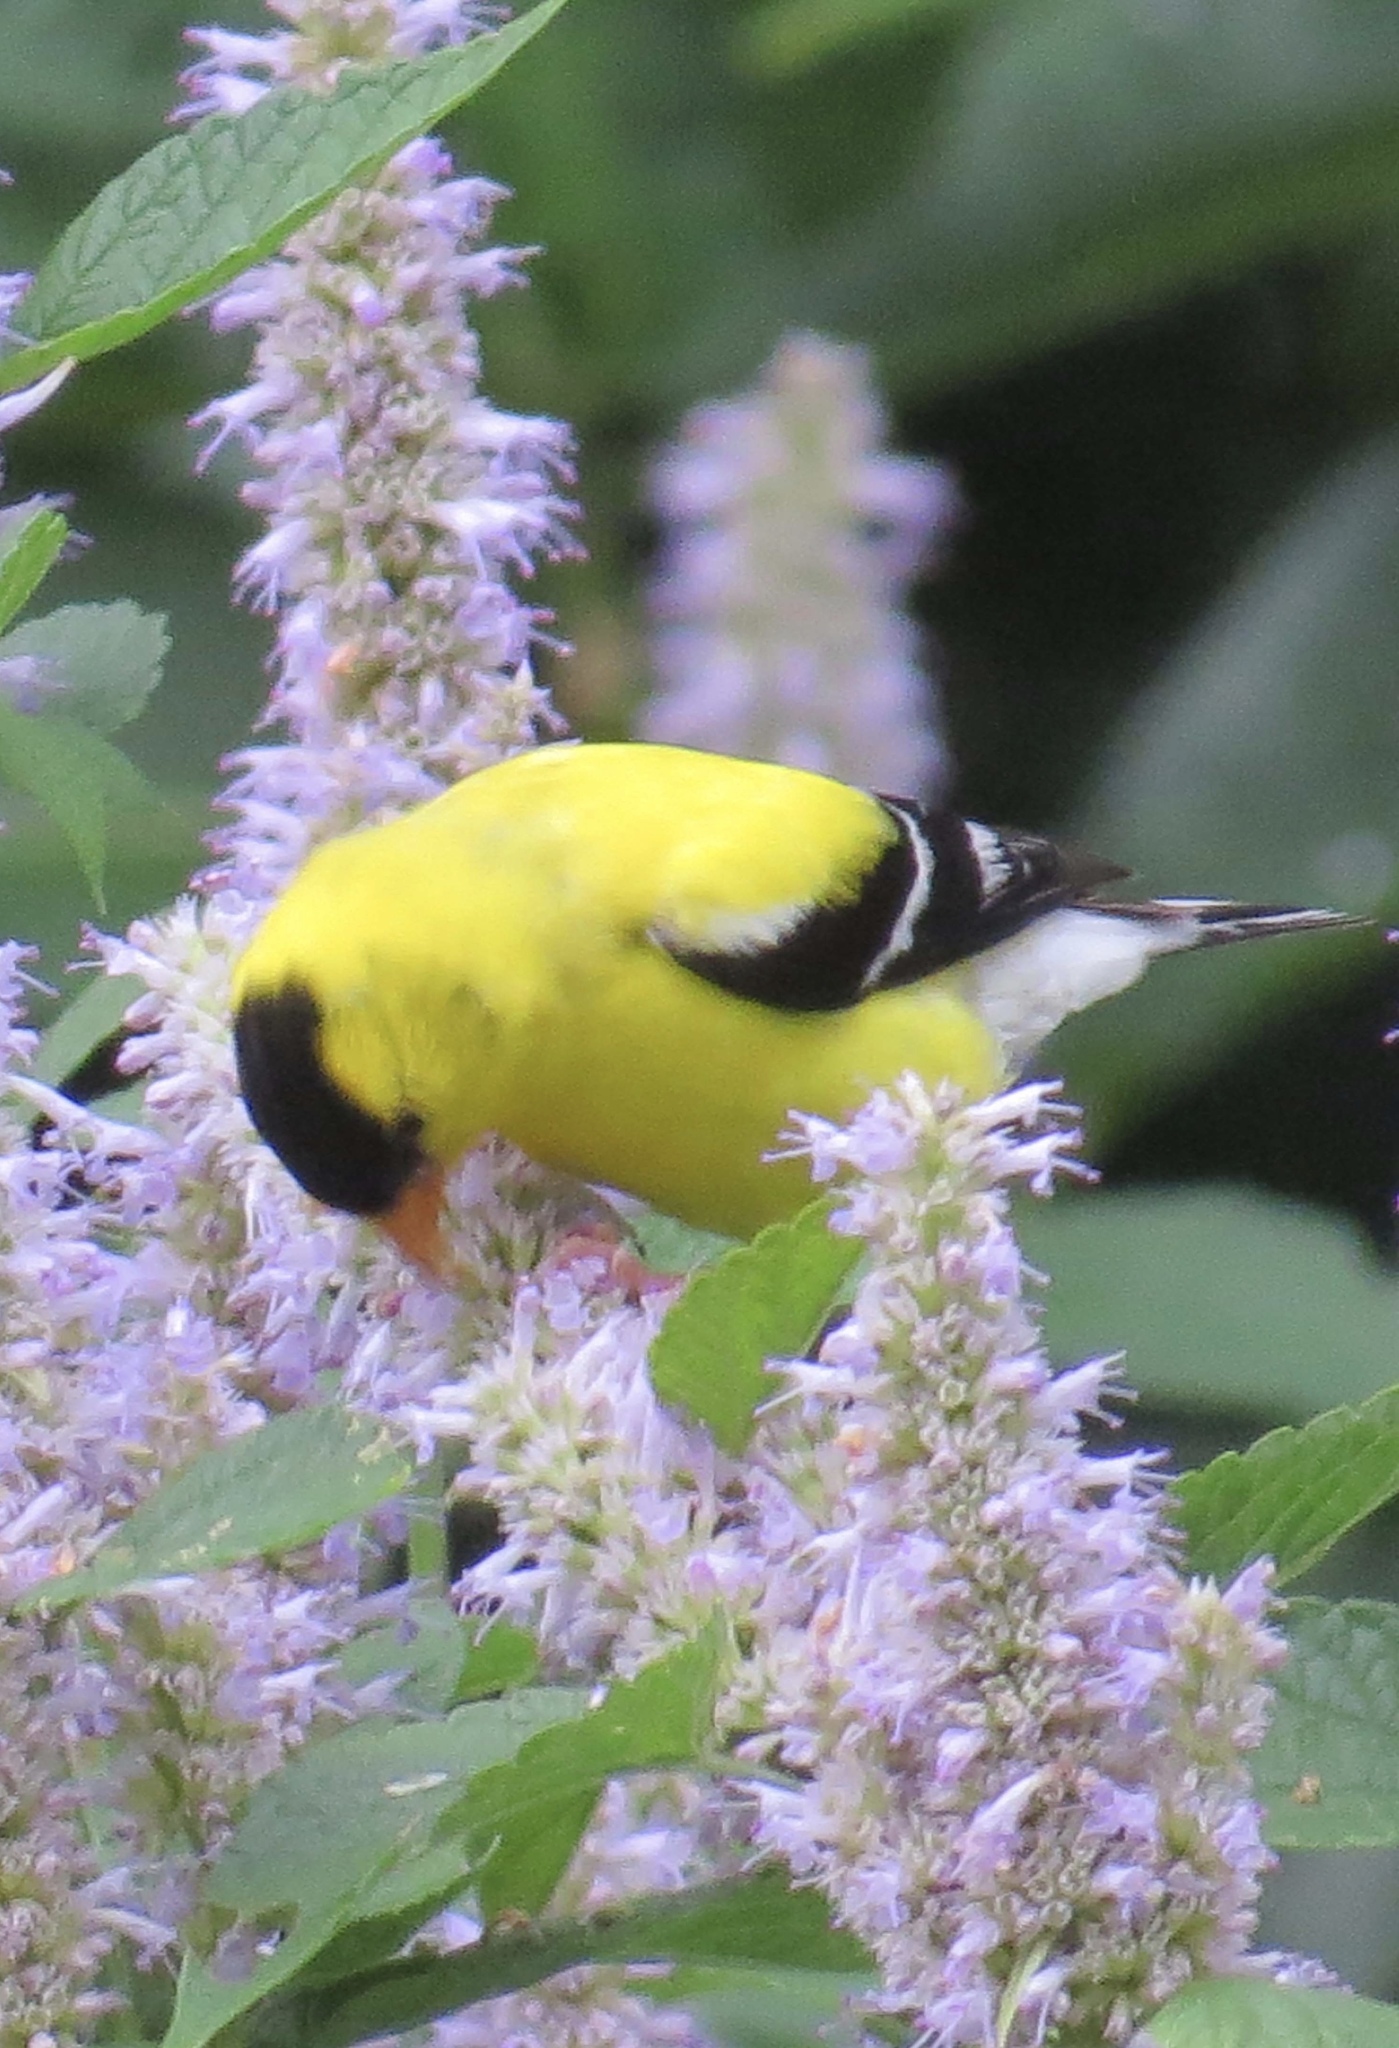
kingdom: Animalia
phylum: Chordata
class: Aves
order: Passeriformes
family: Fringillidae
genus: Spinus
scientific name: Spinus tristis
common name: American goldfinch
